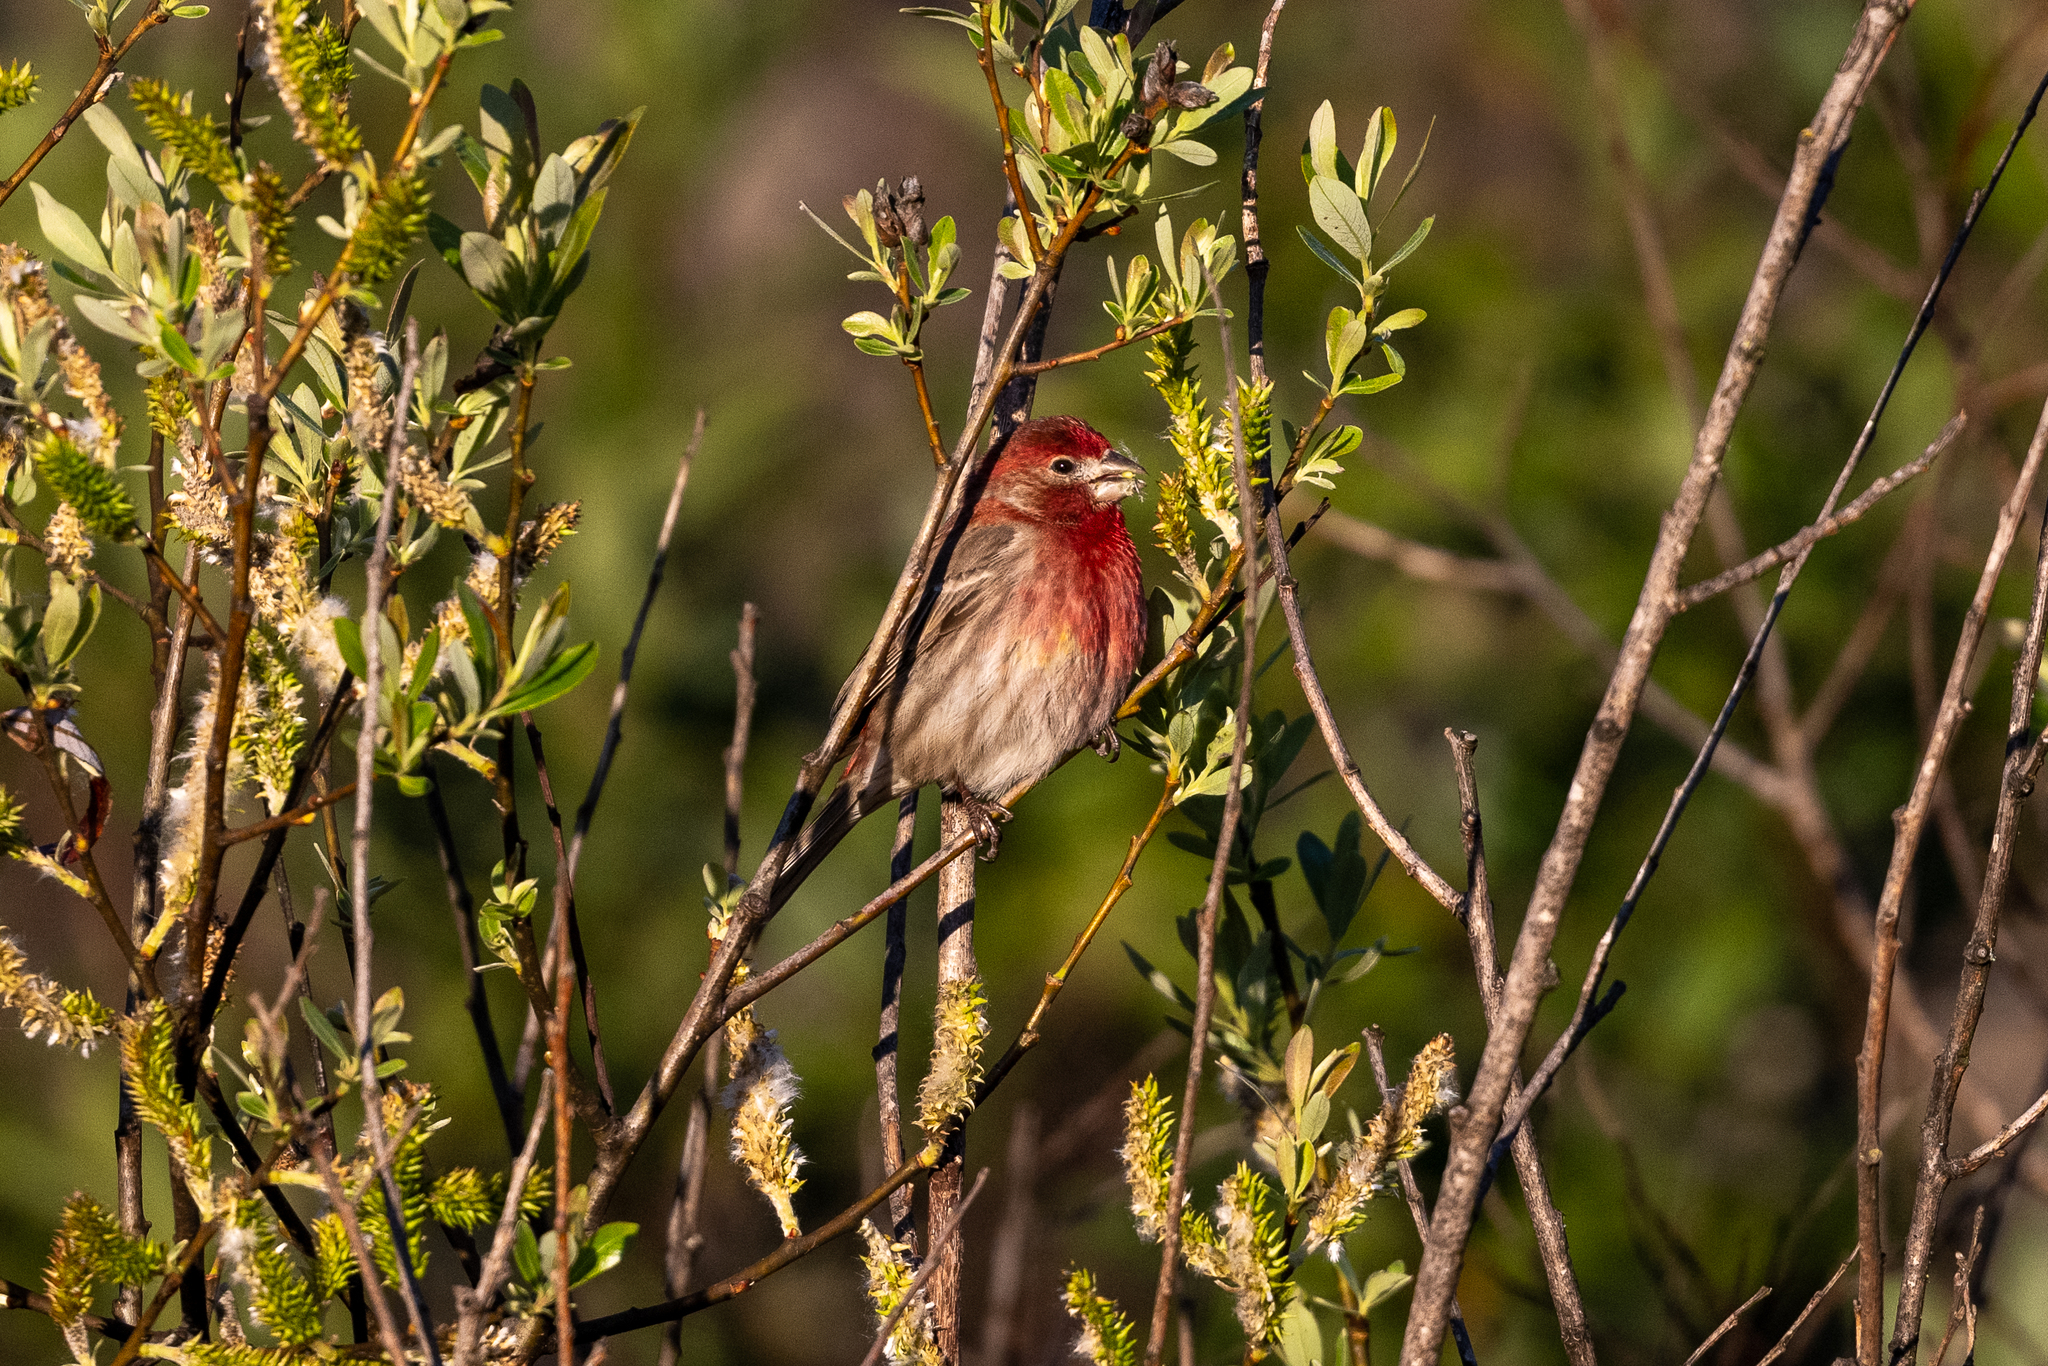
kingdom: Animalia
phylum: Chordata
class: Aves
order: Passeriformes
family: Fringillidae
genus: Haemorhous
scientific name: Haemorhous mexicanus
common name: House finch
